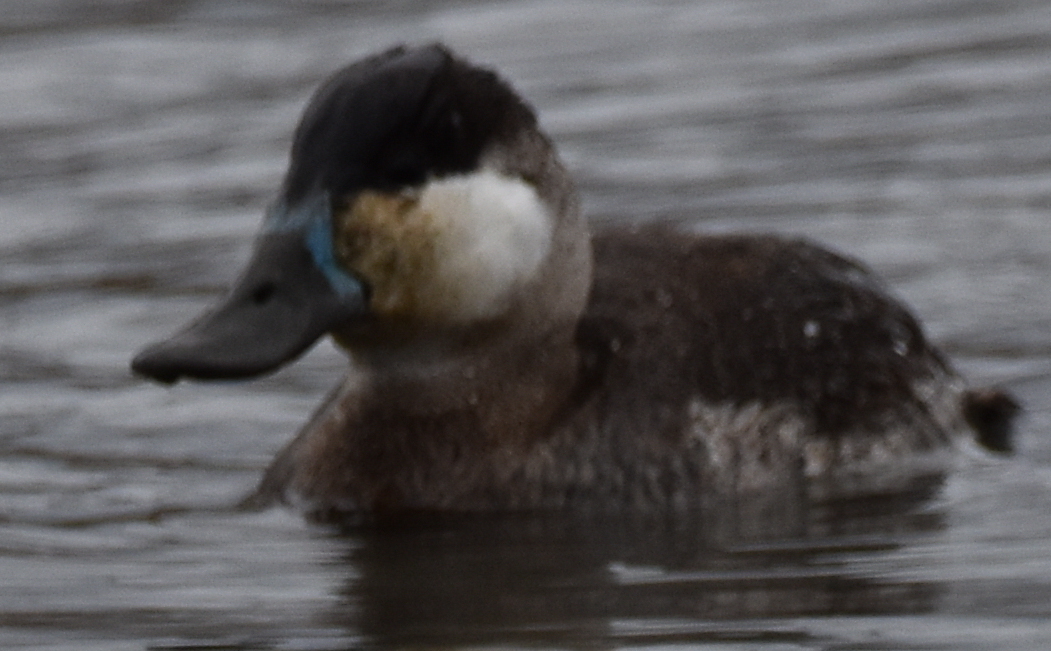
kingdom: Animalia
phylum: Chordata
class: Aves
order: Anseriformes
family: Anatidae
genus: Oxyura
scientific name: Oxyura jamaicensis
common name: Ruddy duck
